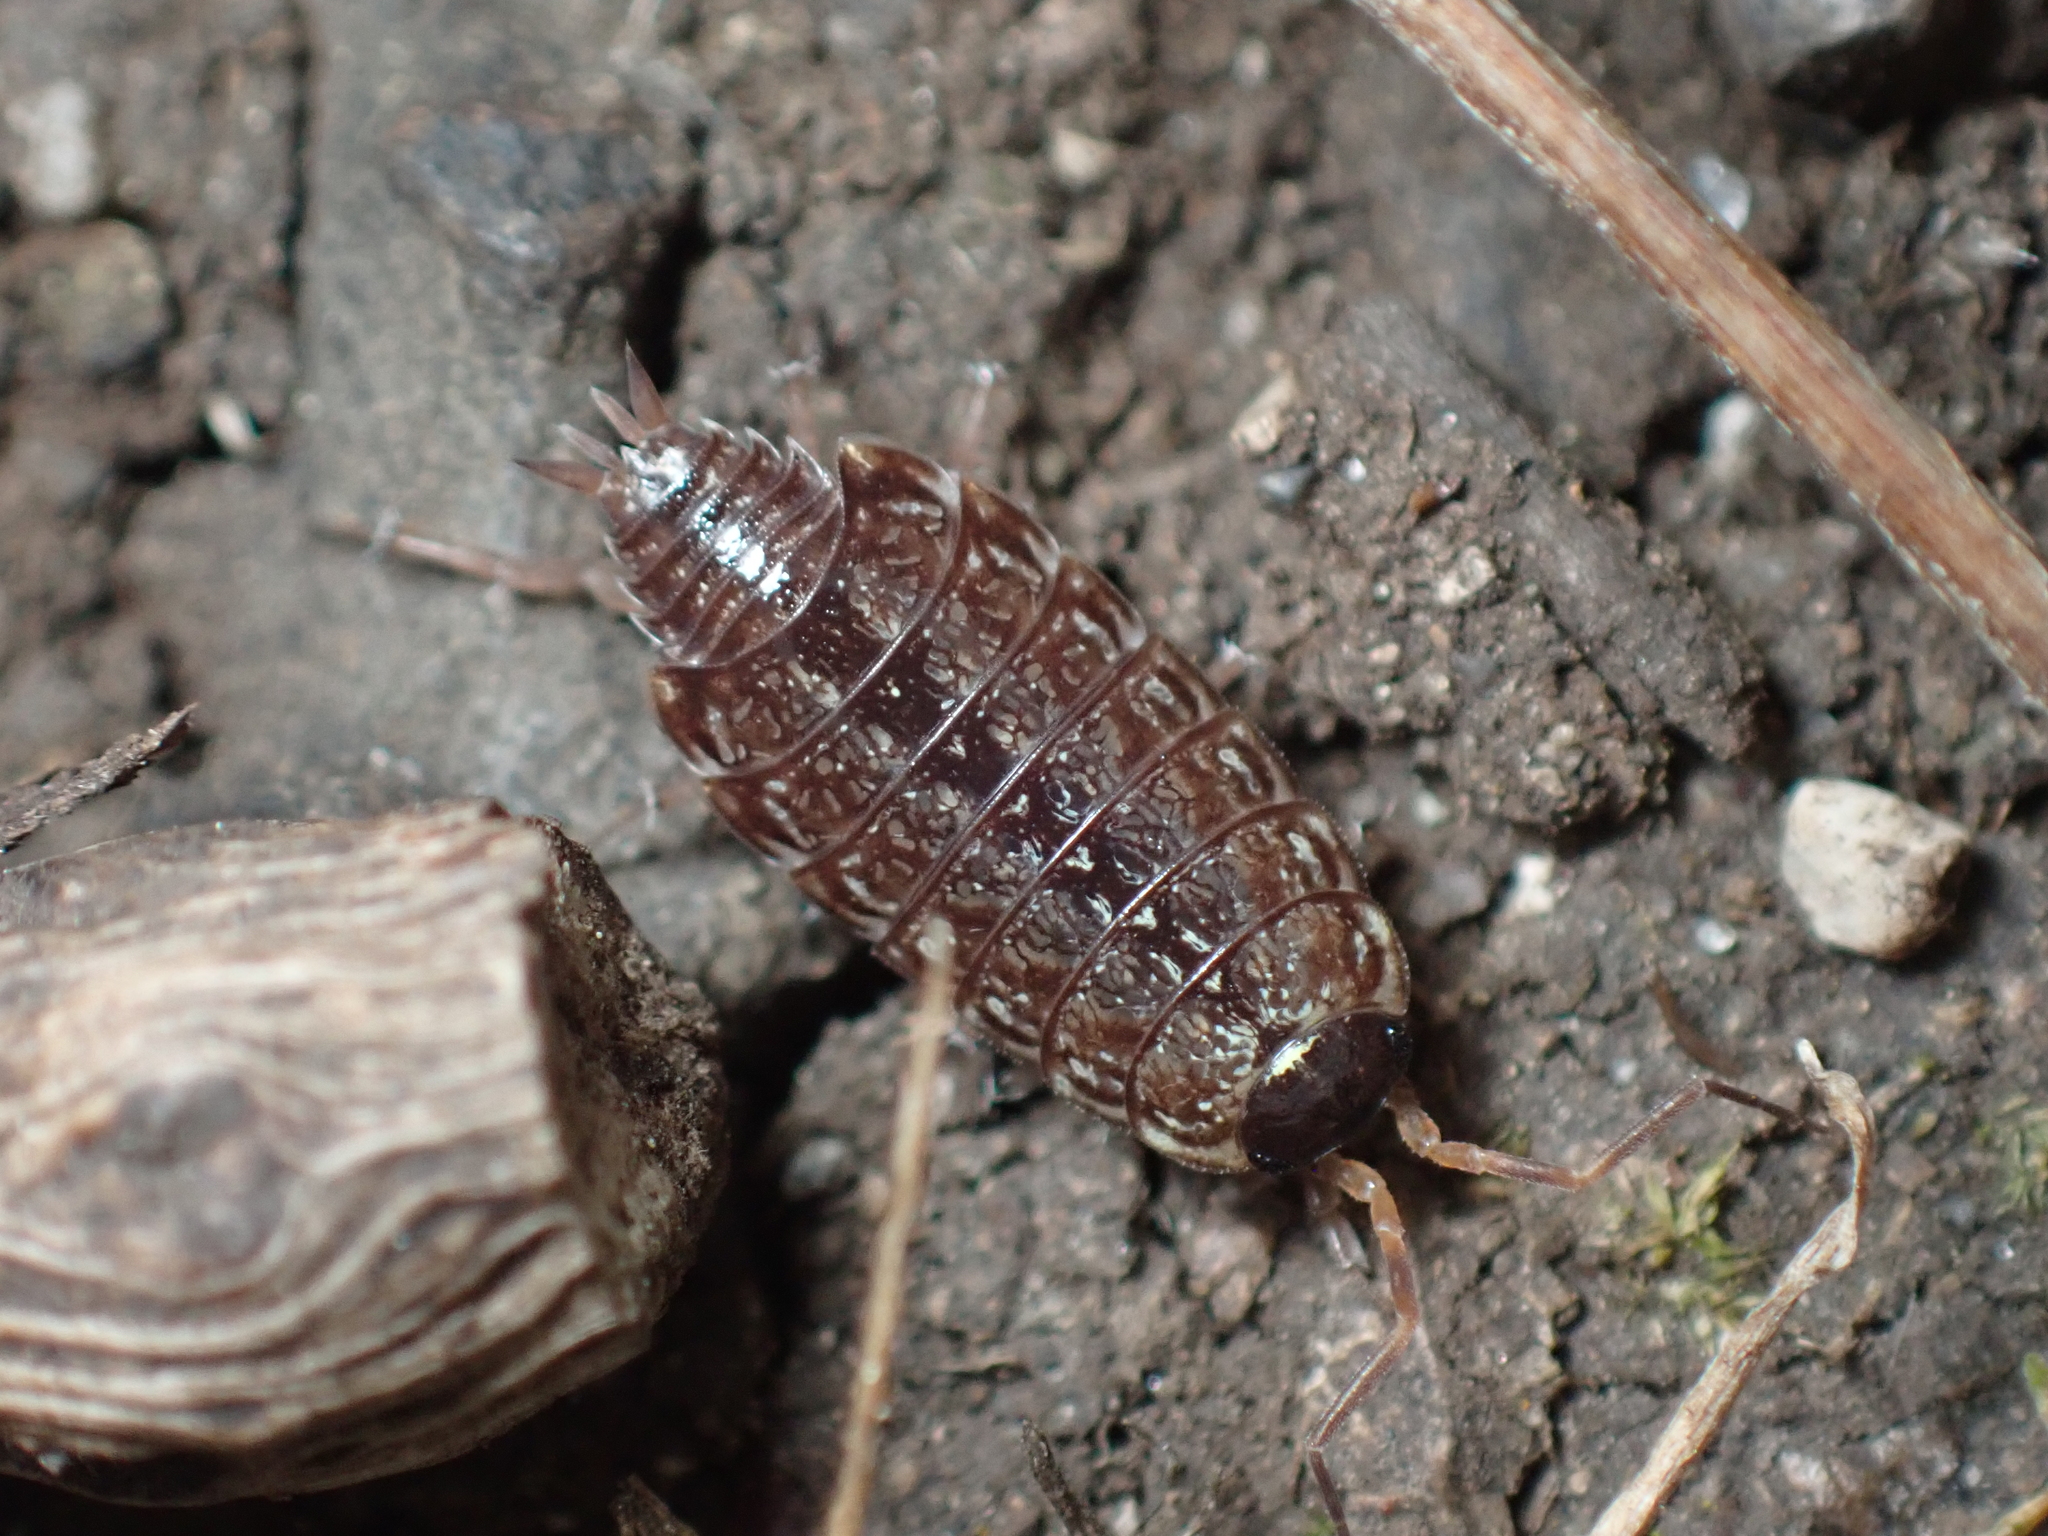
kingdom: Animalia
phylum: Arthropoda
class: Malacostraca
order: Isopoda
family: Philosciidae
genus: Philoscia
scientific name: Philoscia muscorum
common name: Common striped woodlouse
